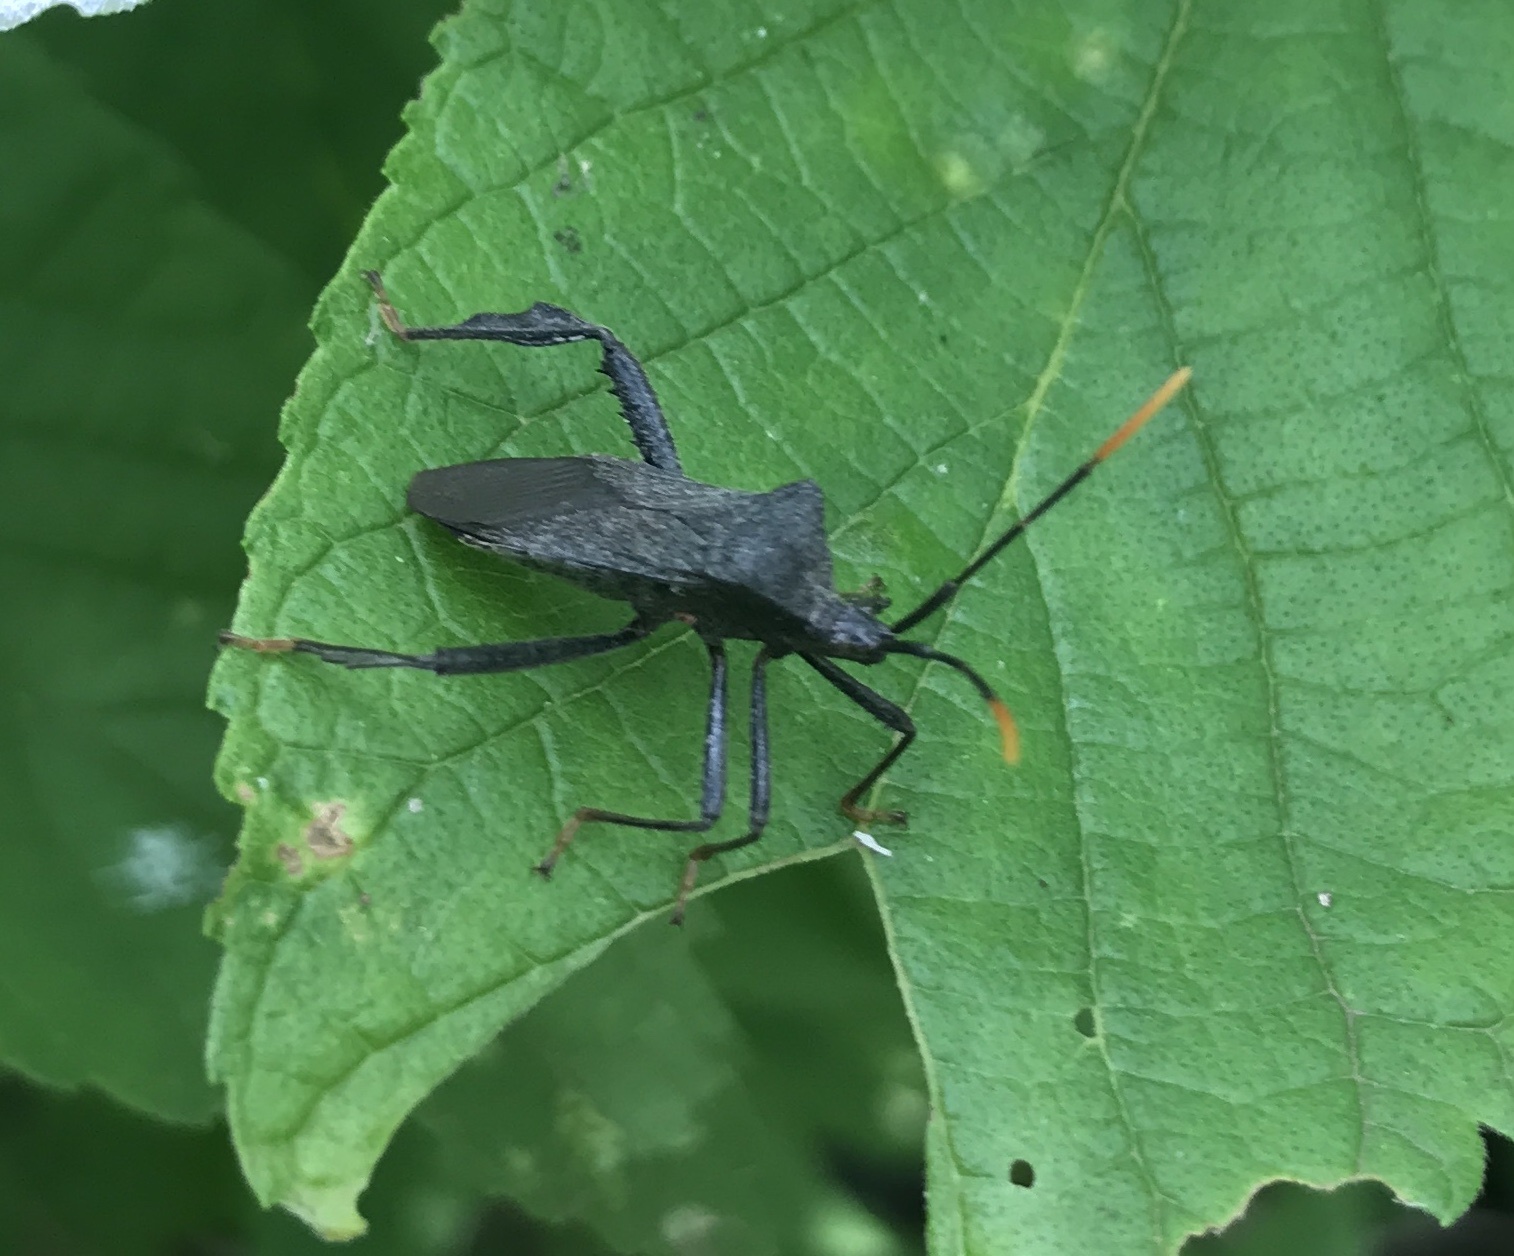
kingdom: Animalia
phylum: Arthropoda
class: Insecta
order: Hemiptera
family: Coreidae
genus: Acanthocephala
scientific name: Acanthocephala terminalis
